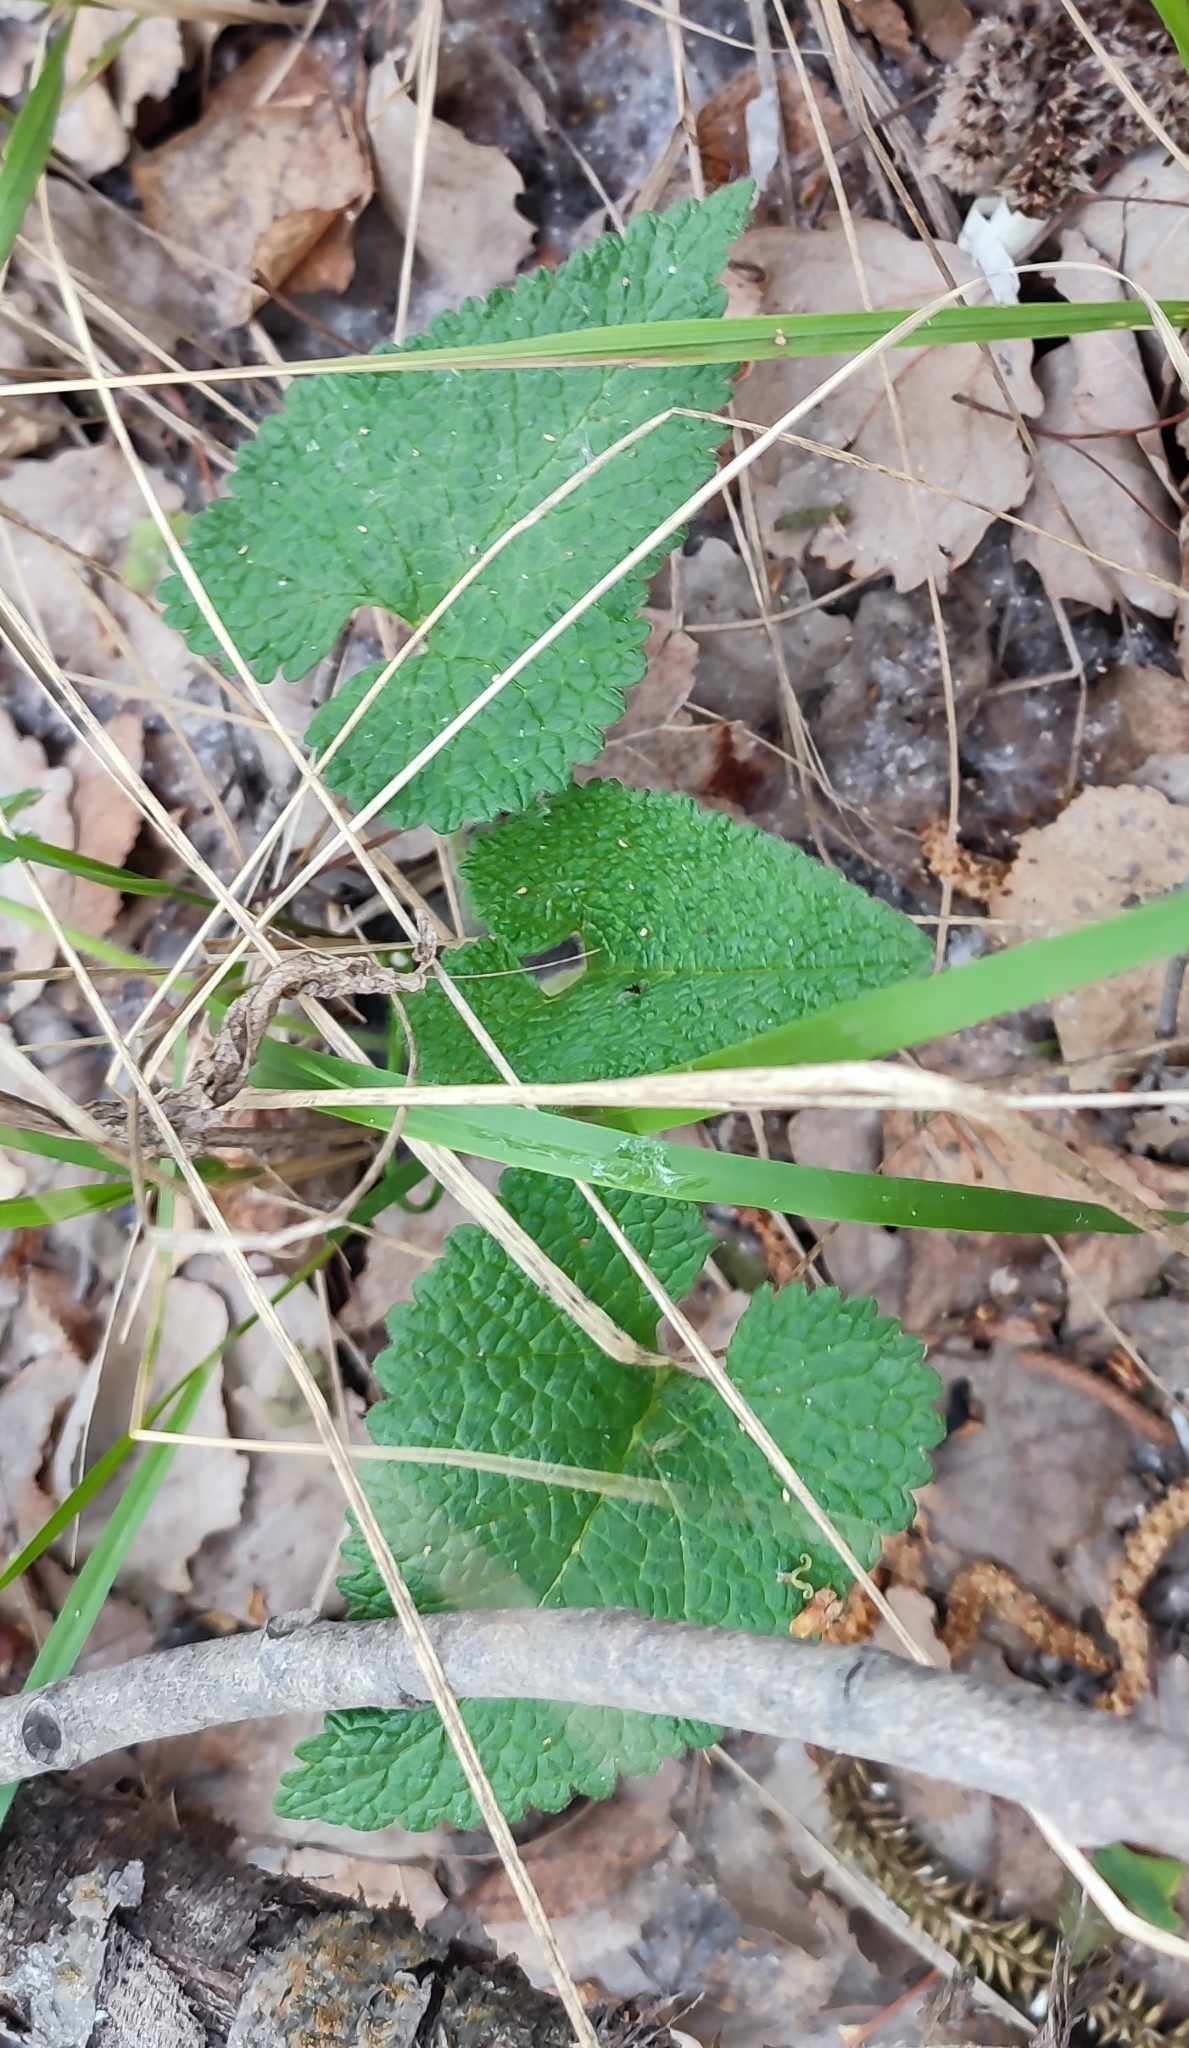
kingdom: Plantae
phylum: Tracheophyta
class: Magnoliopsida
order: Lamiales
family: Lamiaceae
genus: Phlomoides
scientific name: Phlomoides tuberosa
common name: Tuberous jerusalem sage
